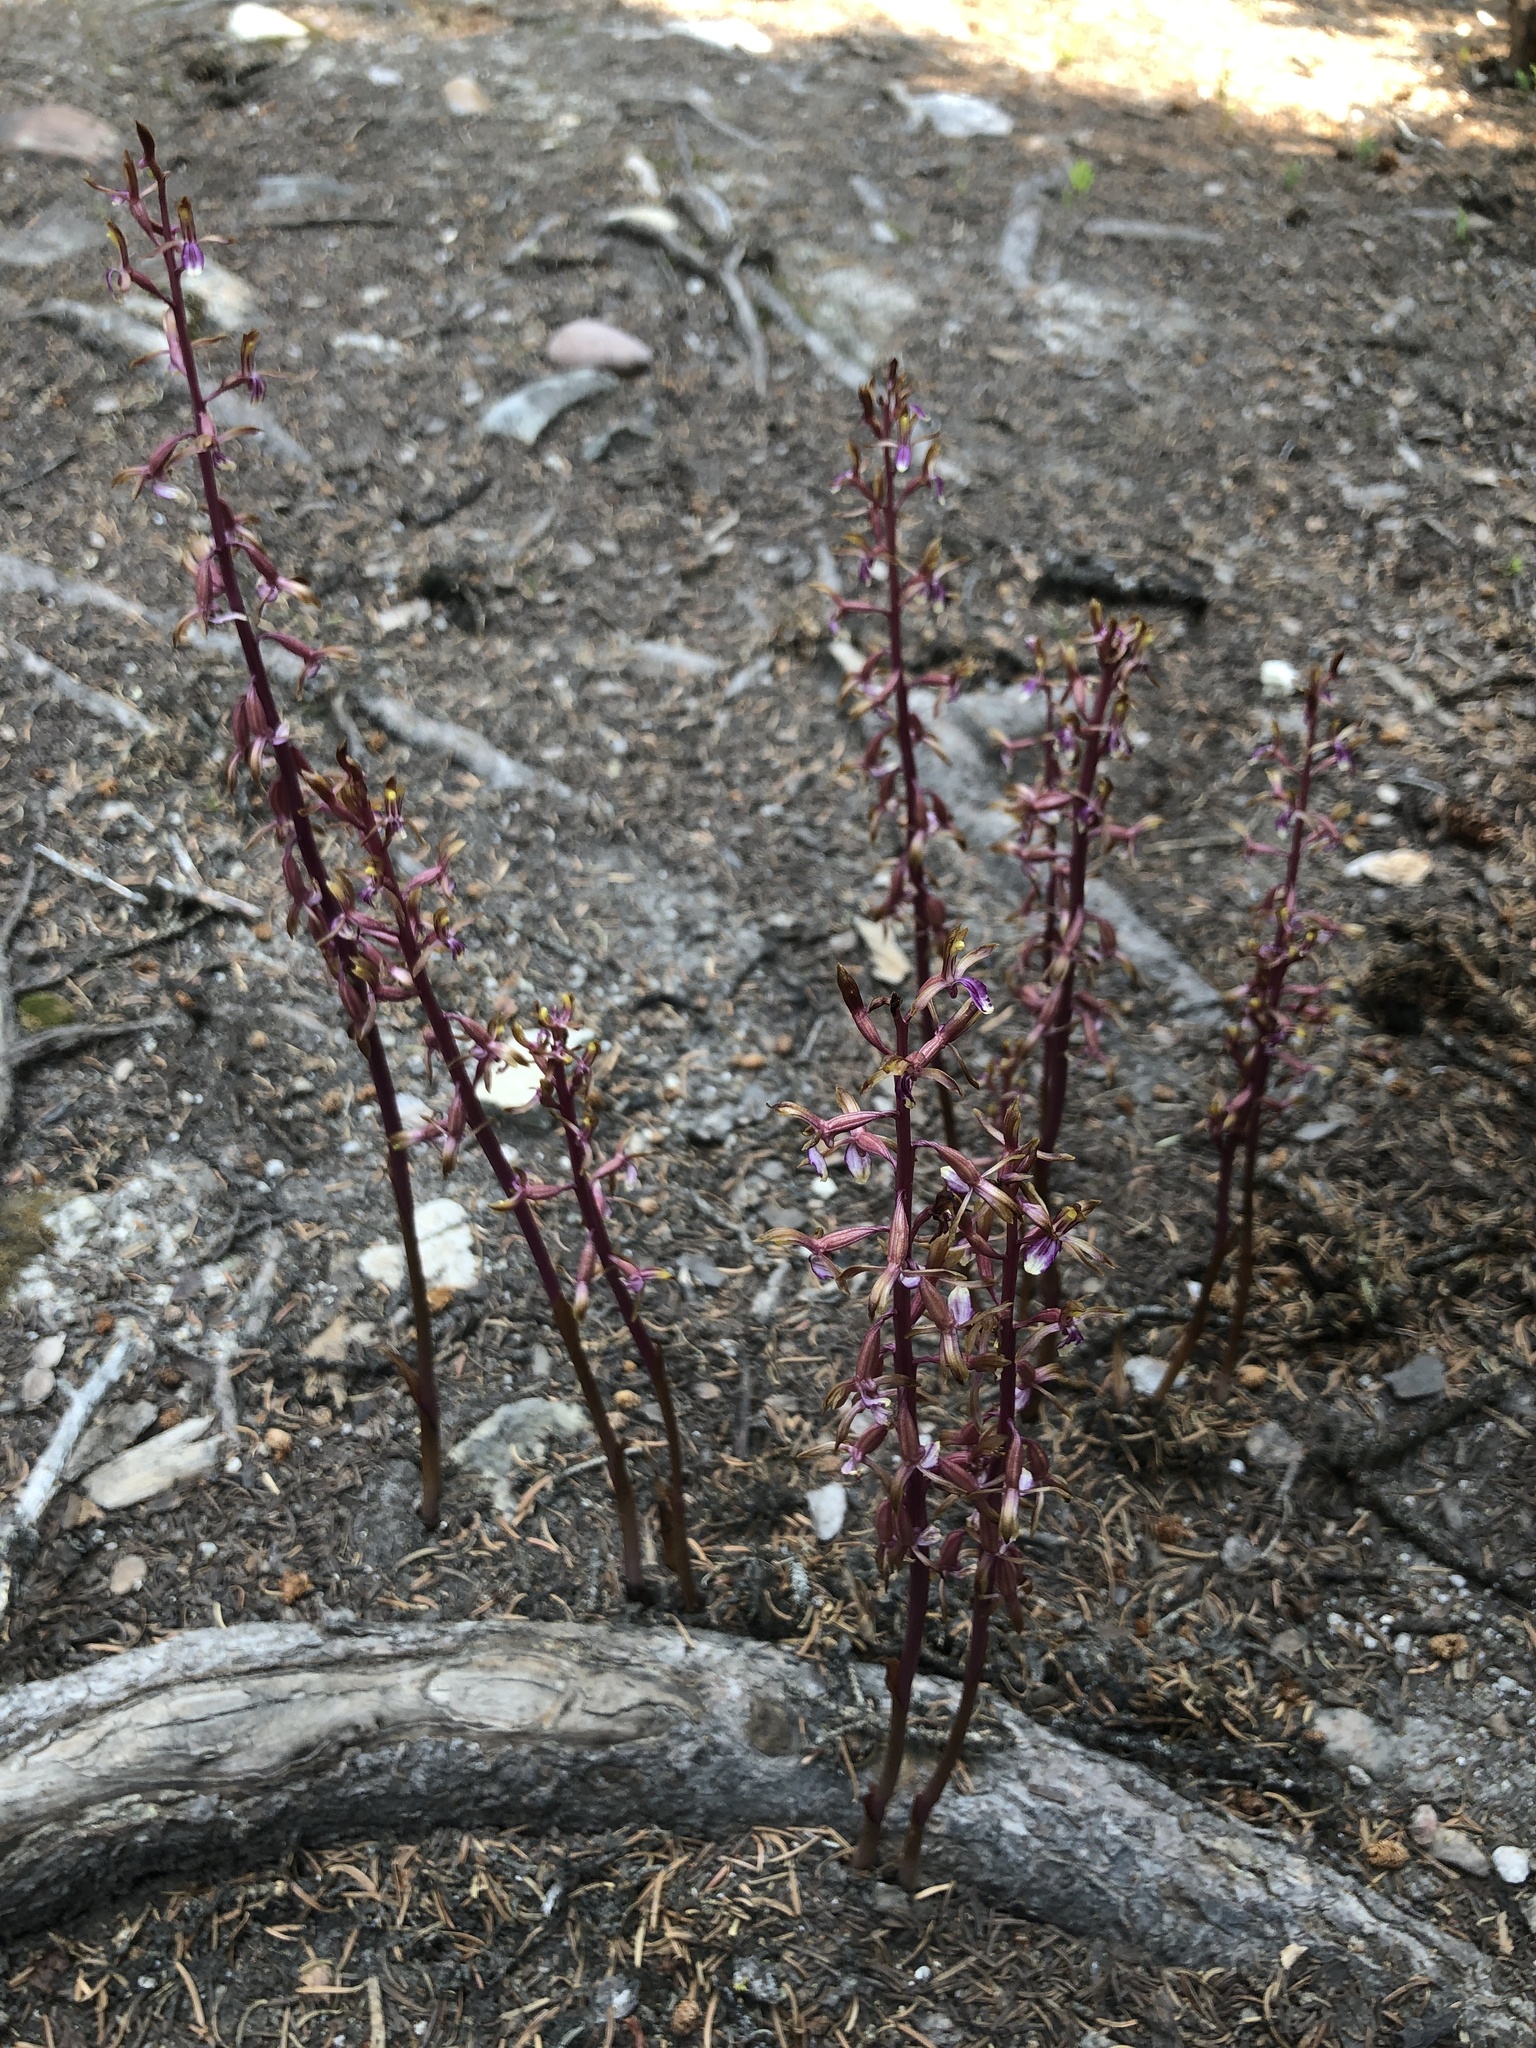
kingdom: Plantae
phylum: Tracheophyta
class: Liliopsida
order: Asparagales
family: Orchidaceae
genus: Corallorhiza
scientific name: Corallorhiza mertensiana
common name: Pacific coralroot
